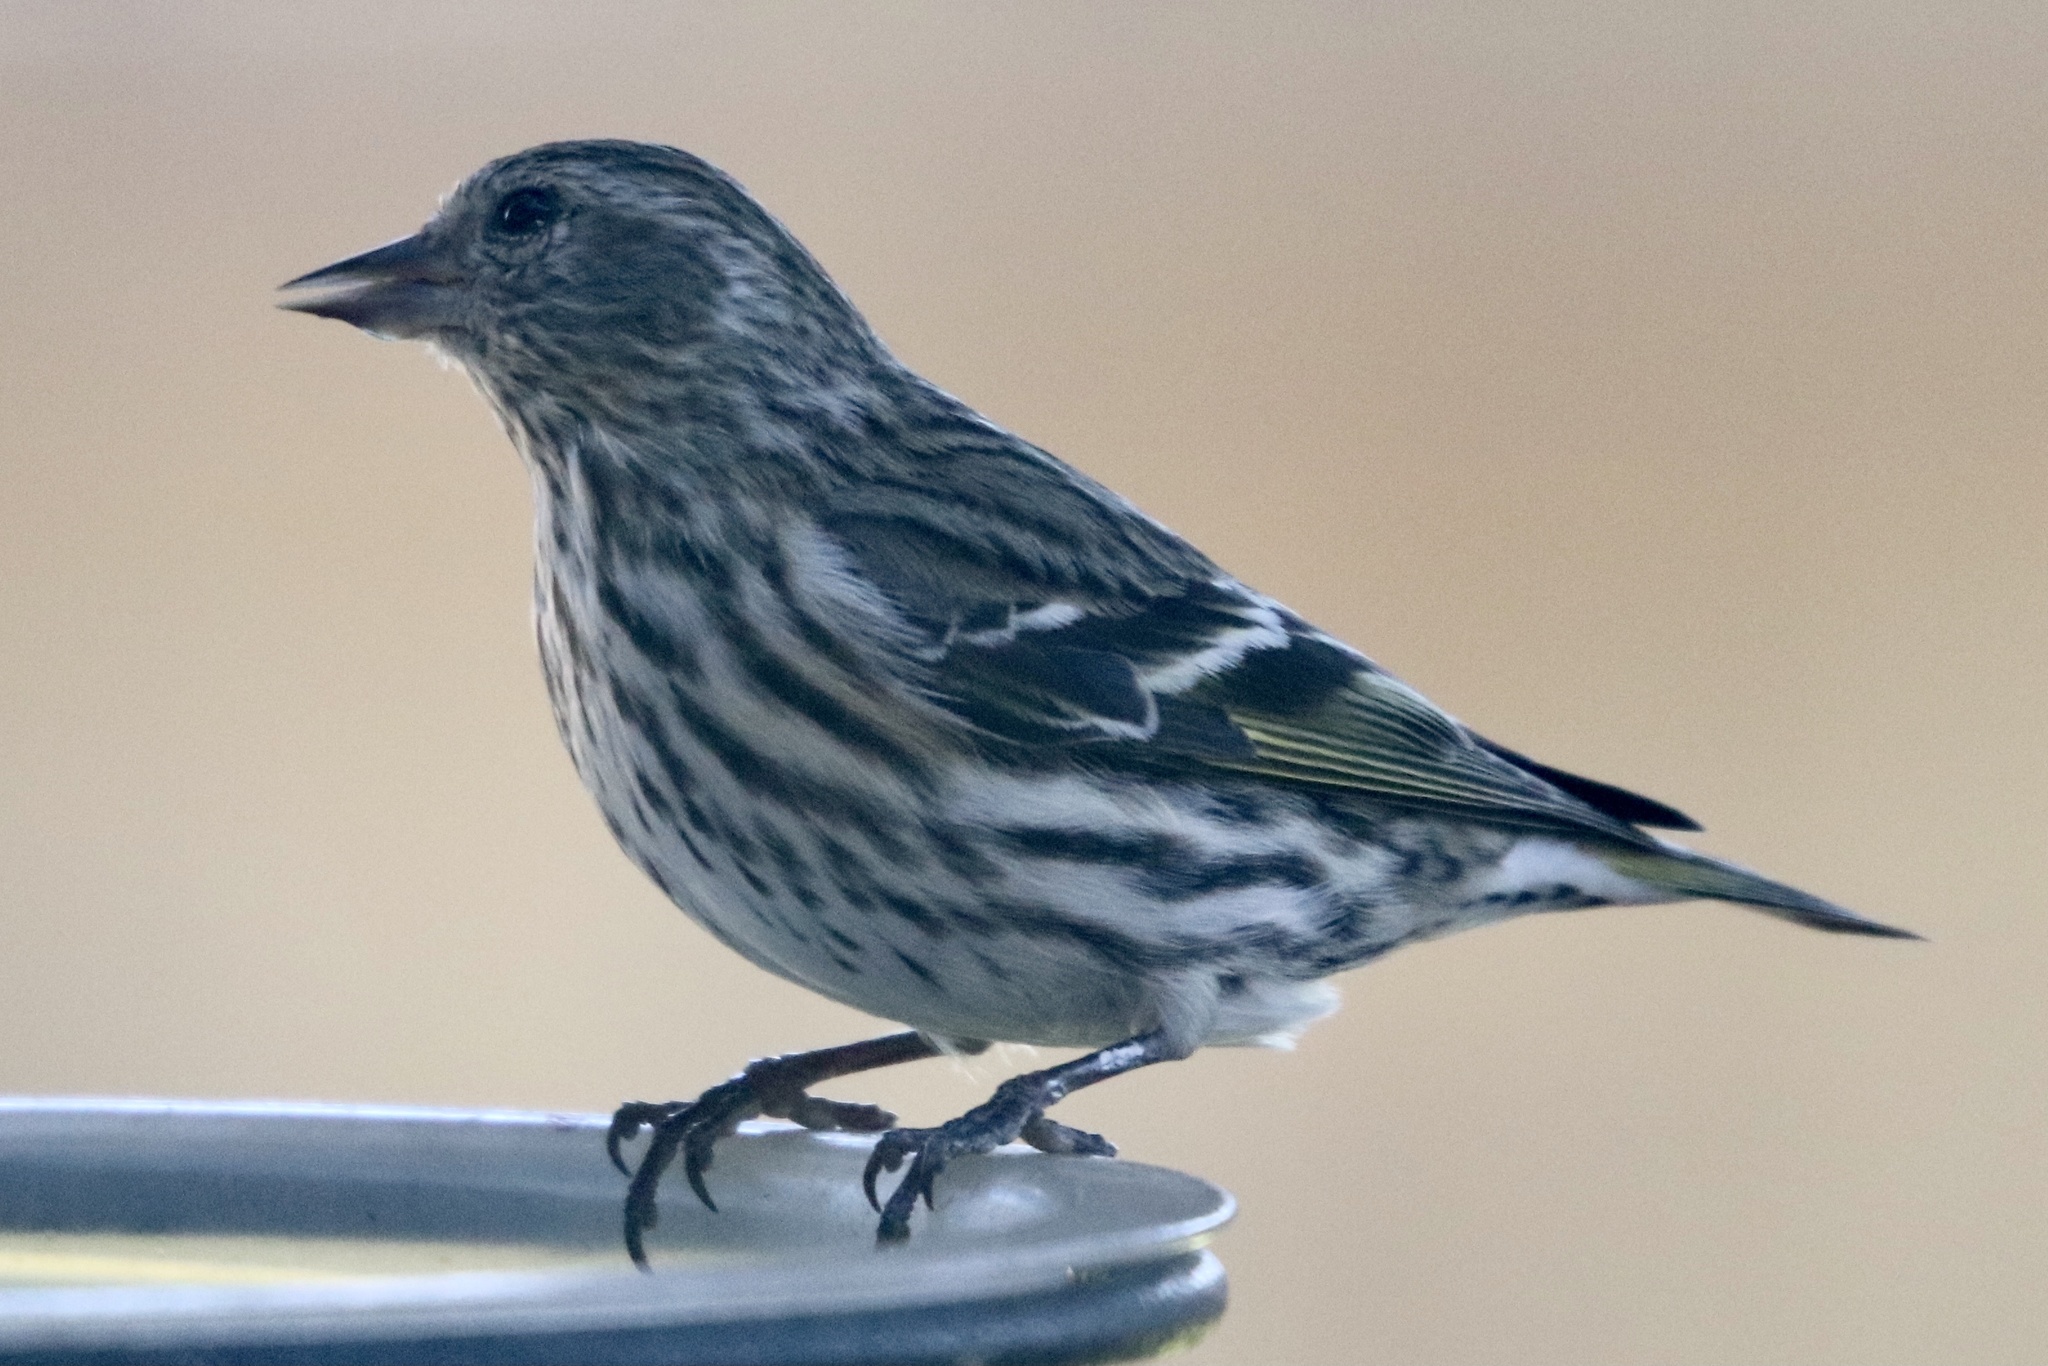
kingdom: Animalia
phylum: Chordata
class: Aves
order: Passeriformes
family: Fringillidae
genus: Spinus
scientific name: Spinus pinus
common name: Pine siskin
